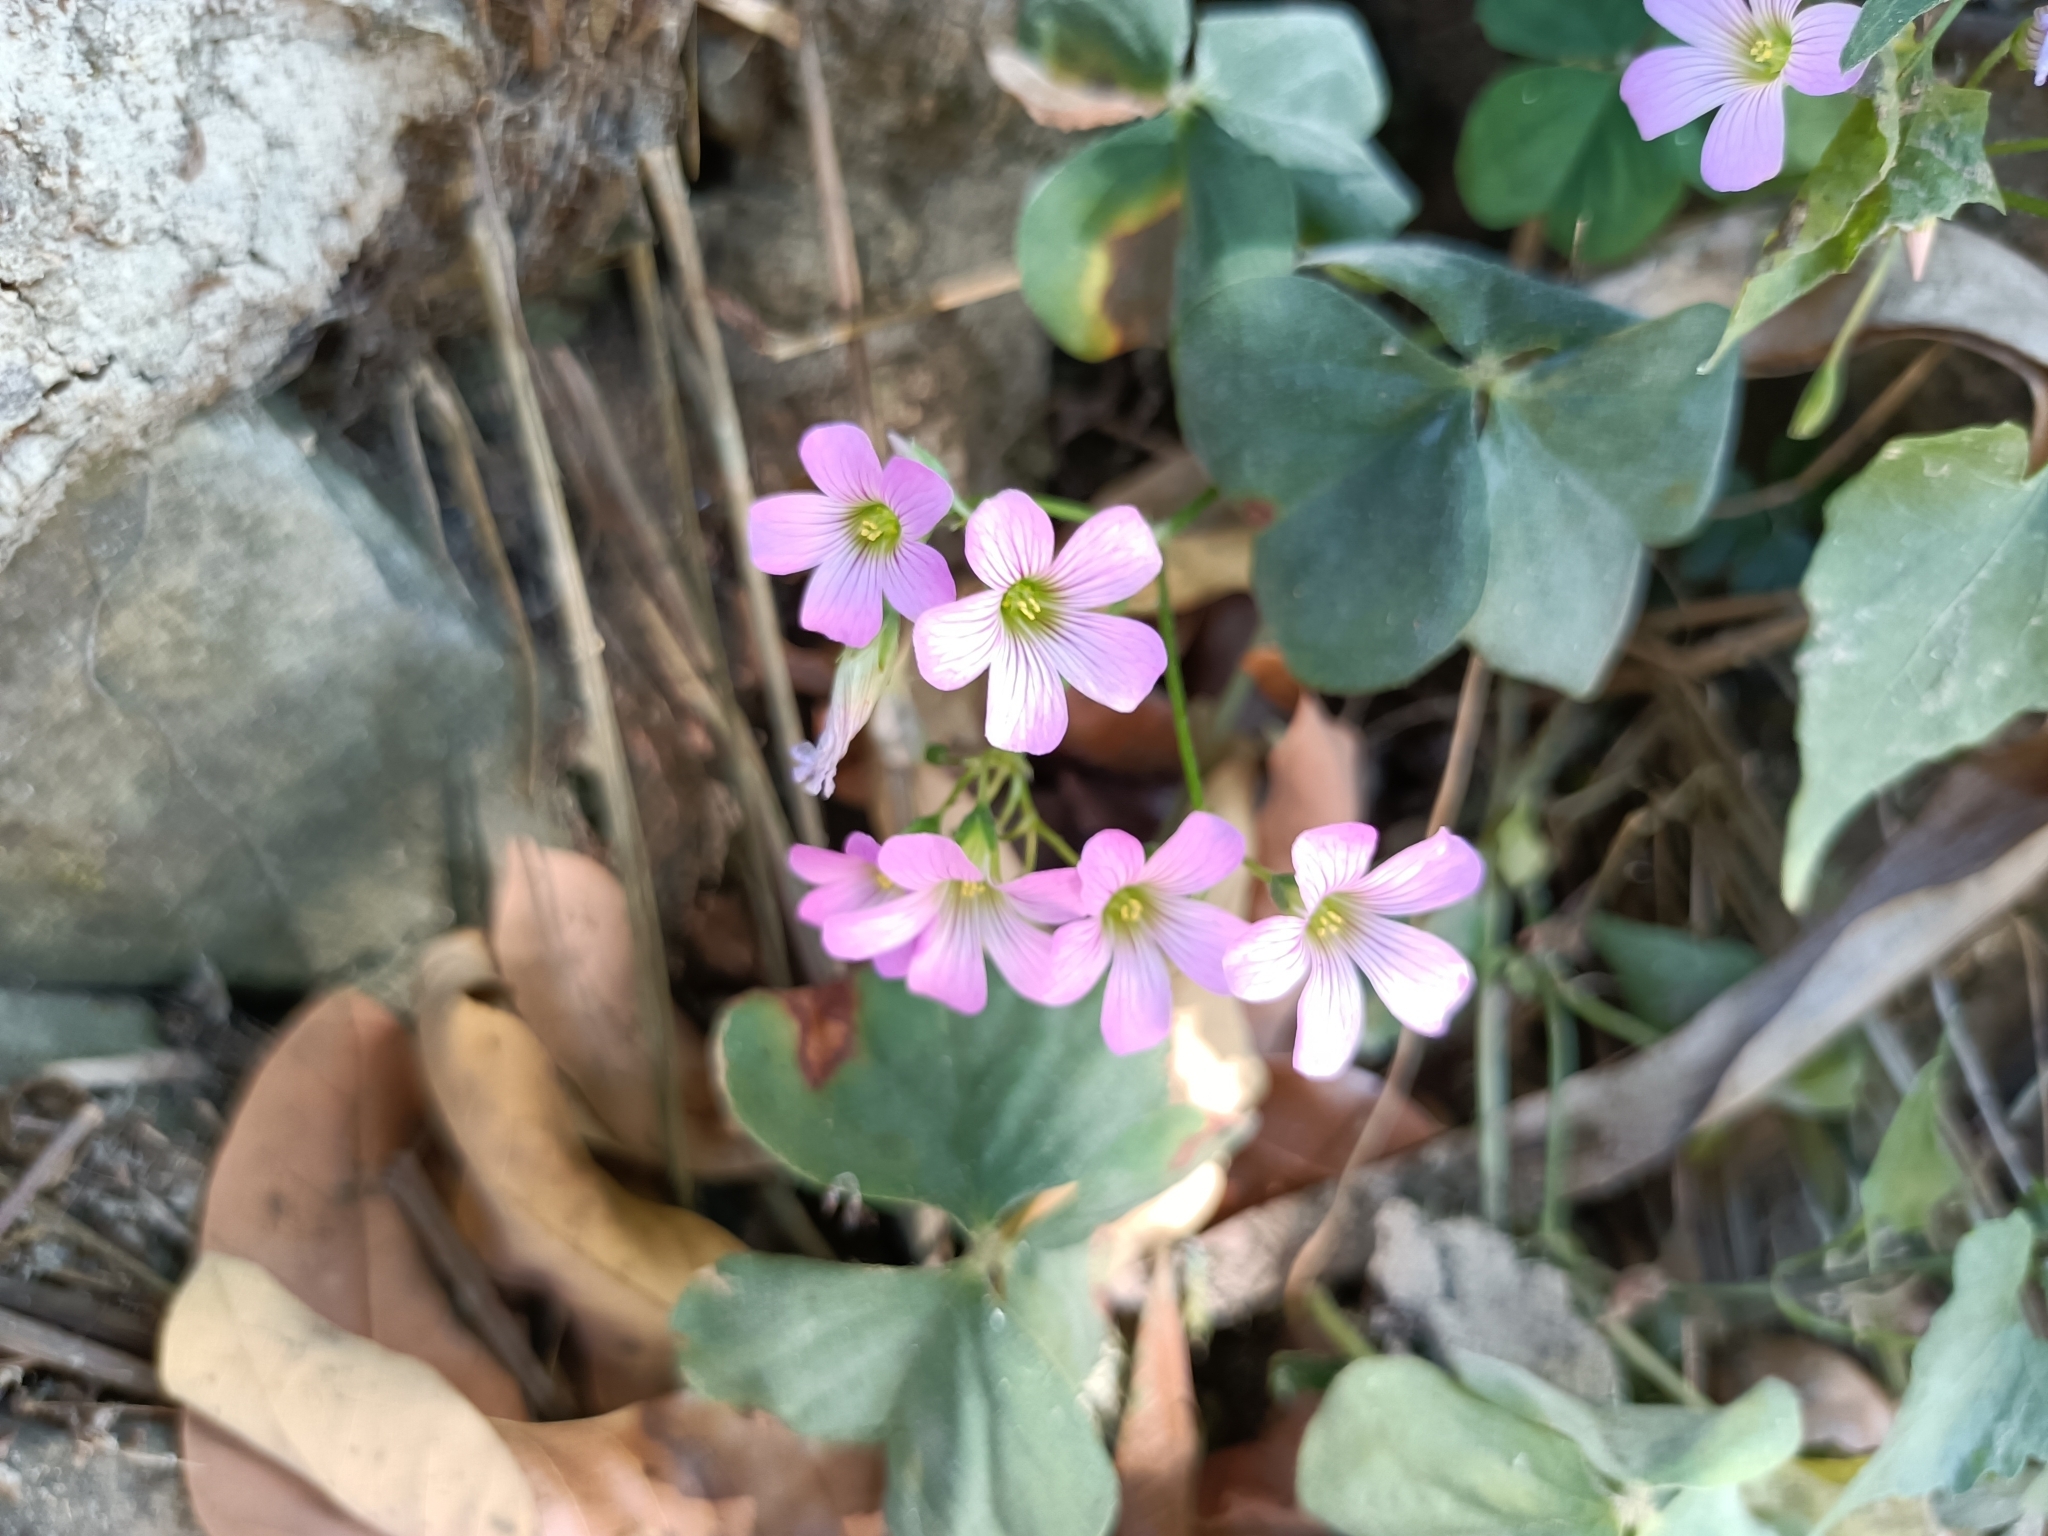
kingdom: Plantae
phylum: Tracheophyta
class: Magnoliopsida
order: Oxalidales
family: Oxalidaceae
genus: Oxalis
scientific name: Oxalis debilis
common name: Large-flowered pink-sorrel
